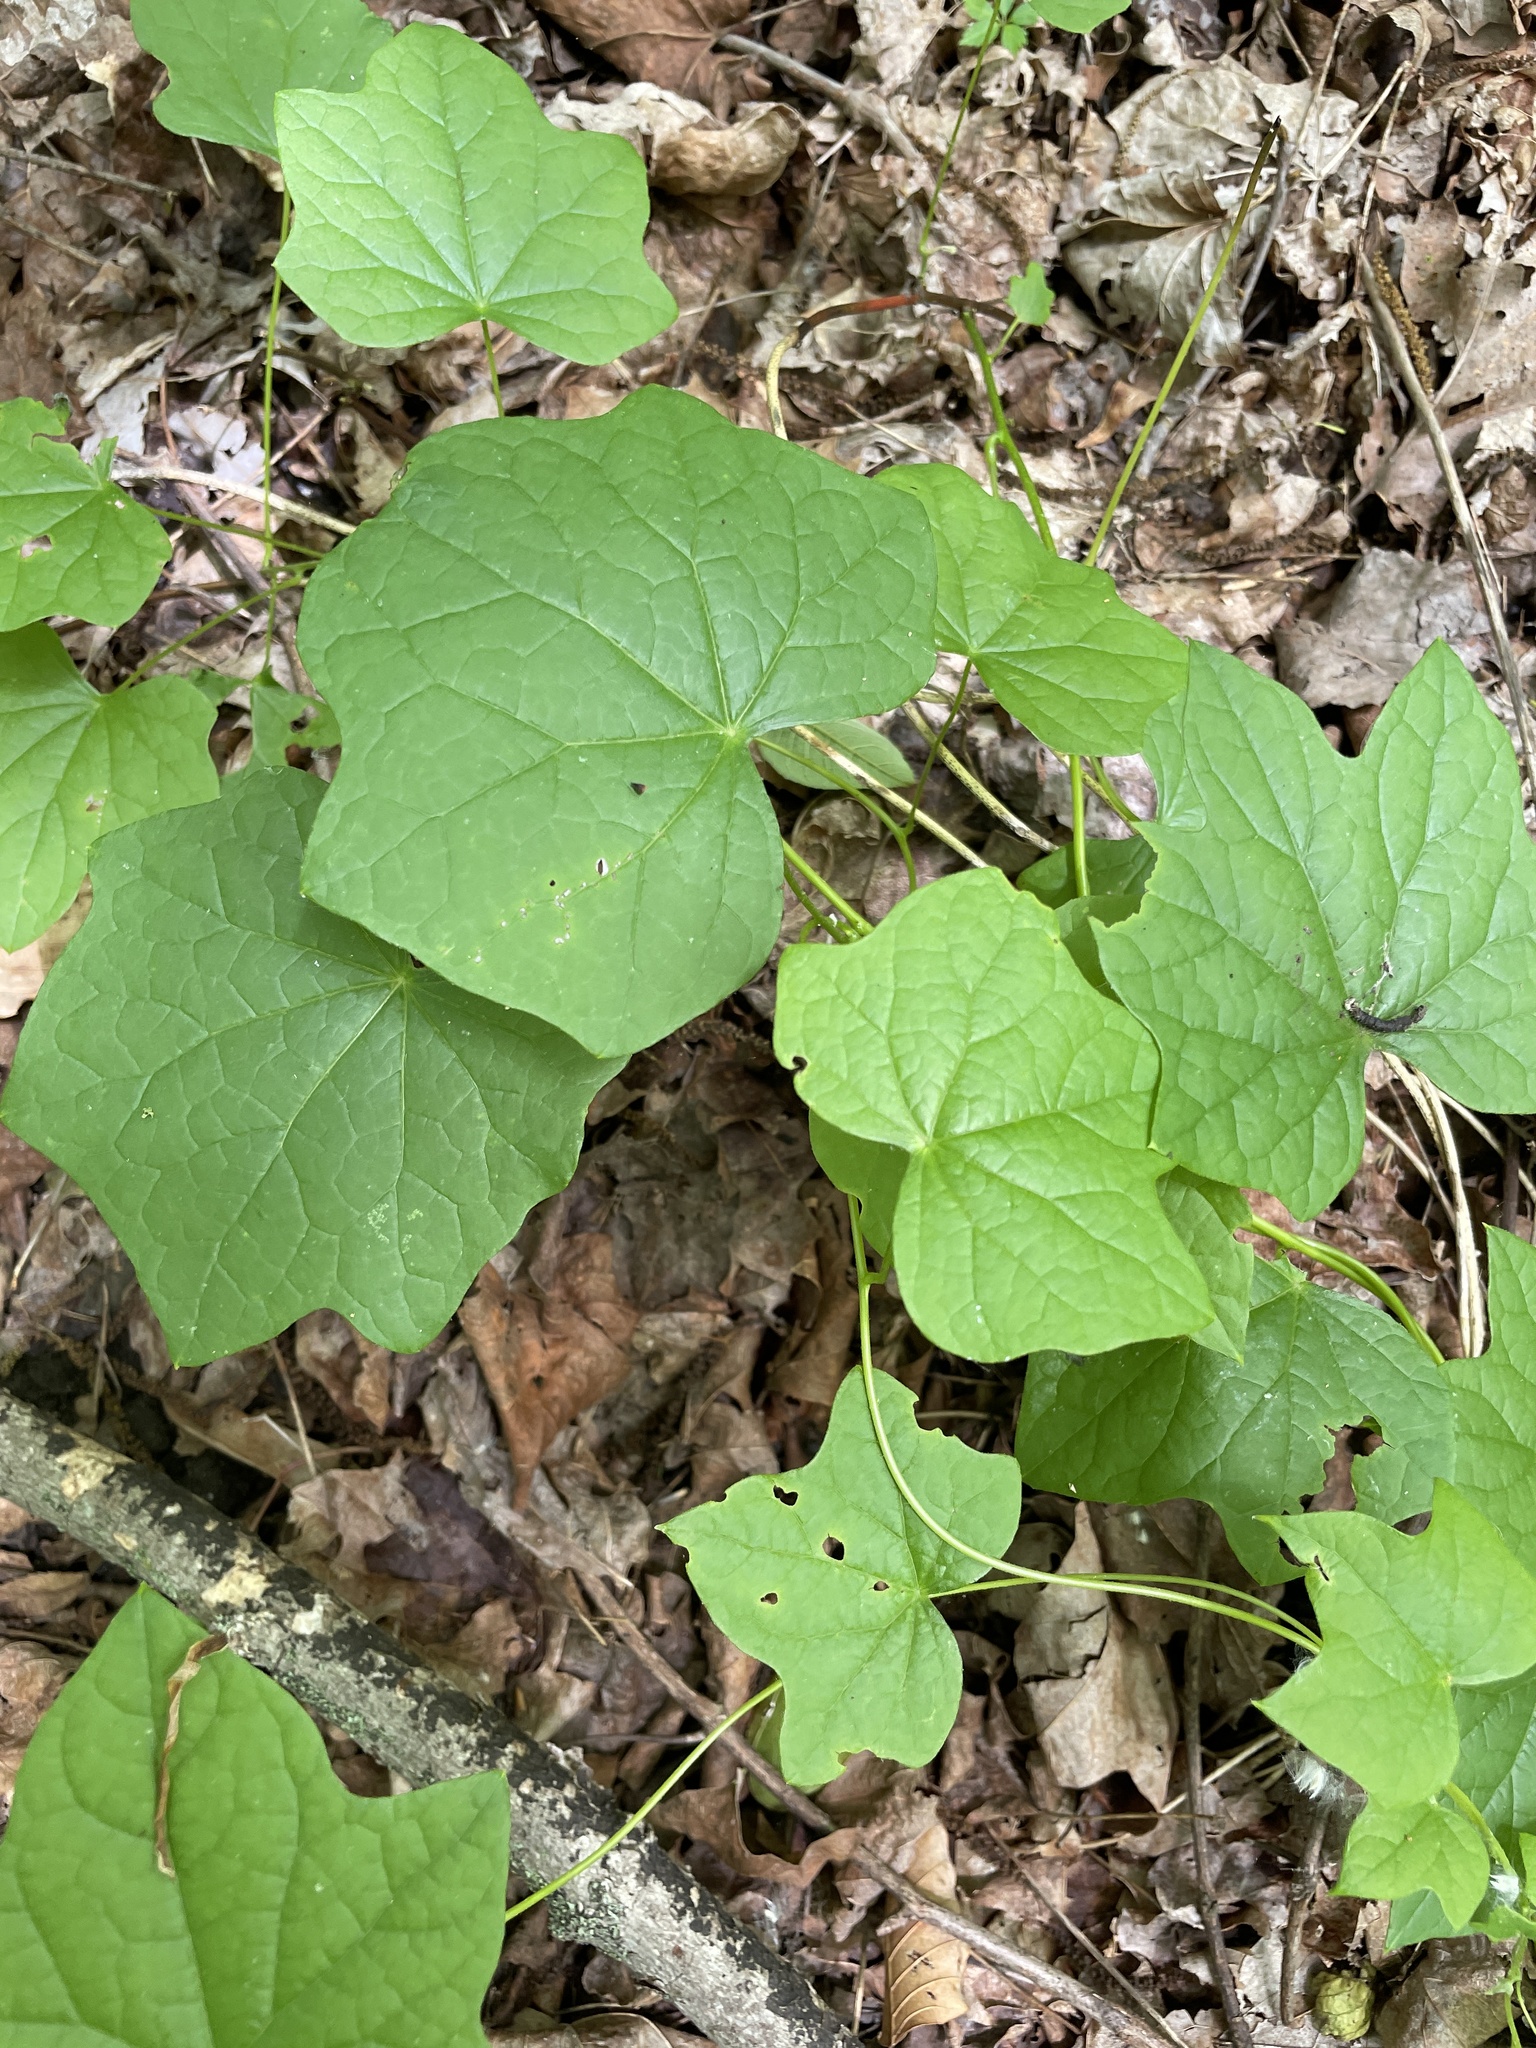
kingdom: Plantae
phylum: Tracheophyta
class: Magnoliopsida
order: Ranunculales
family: Menispermaceae
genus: Menispermum
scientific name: Menispermum canadense
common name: Moonseed
